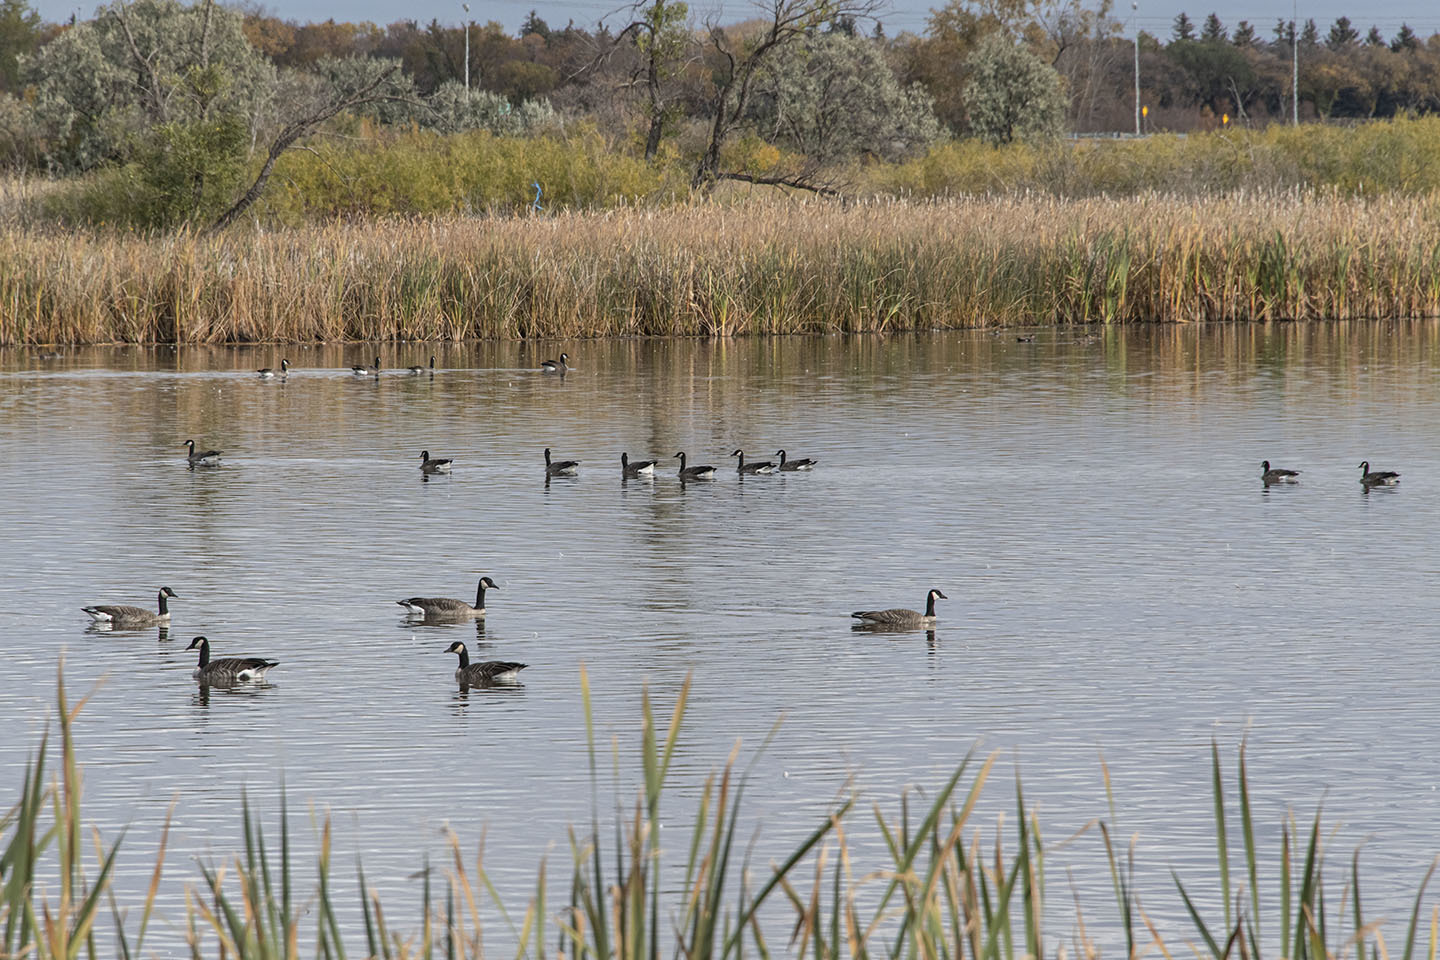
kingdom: Animalia
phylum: Chordata
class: Aves
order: Anseriformes
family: Anatidae
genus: Branta
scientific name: Branta canadensis
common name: Canada goose
